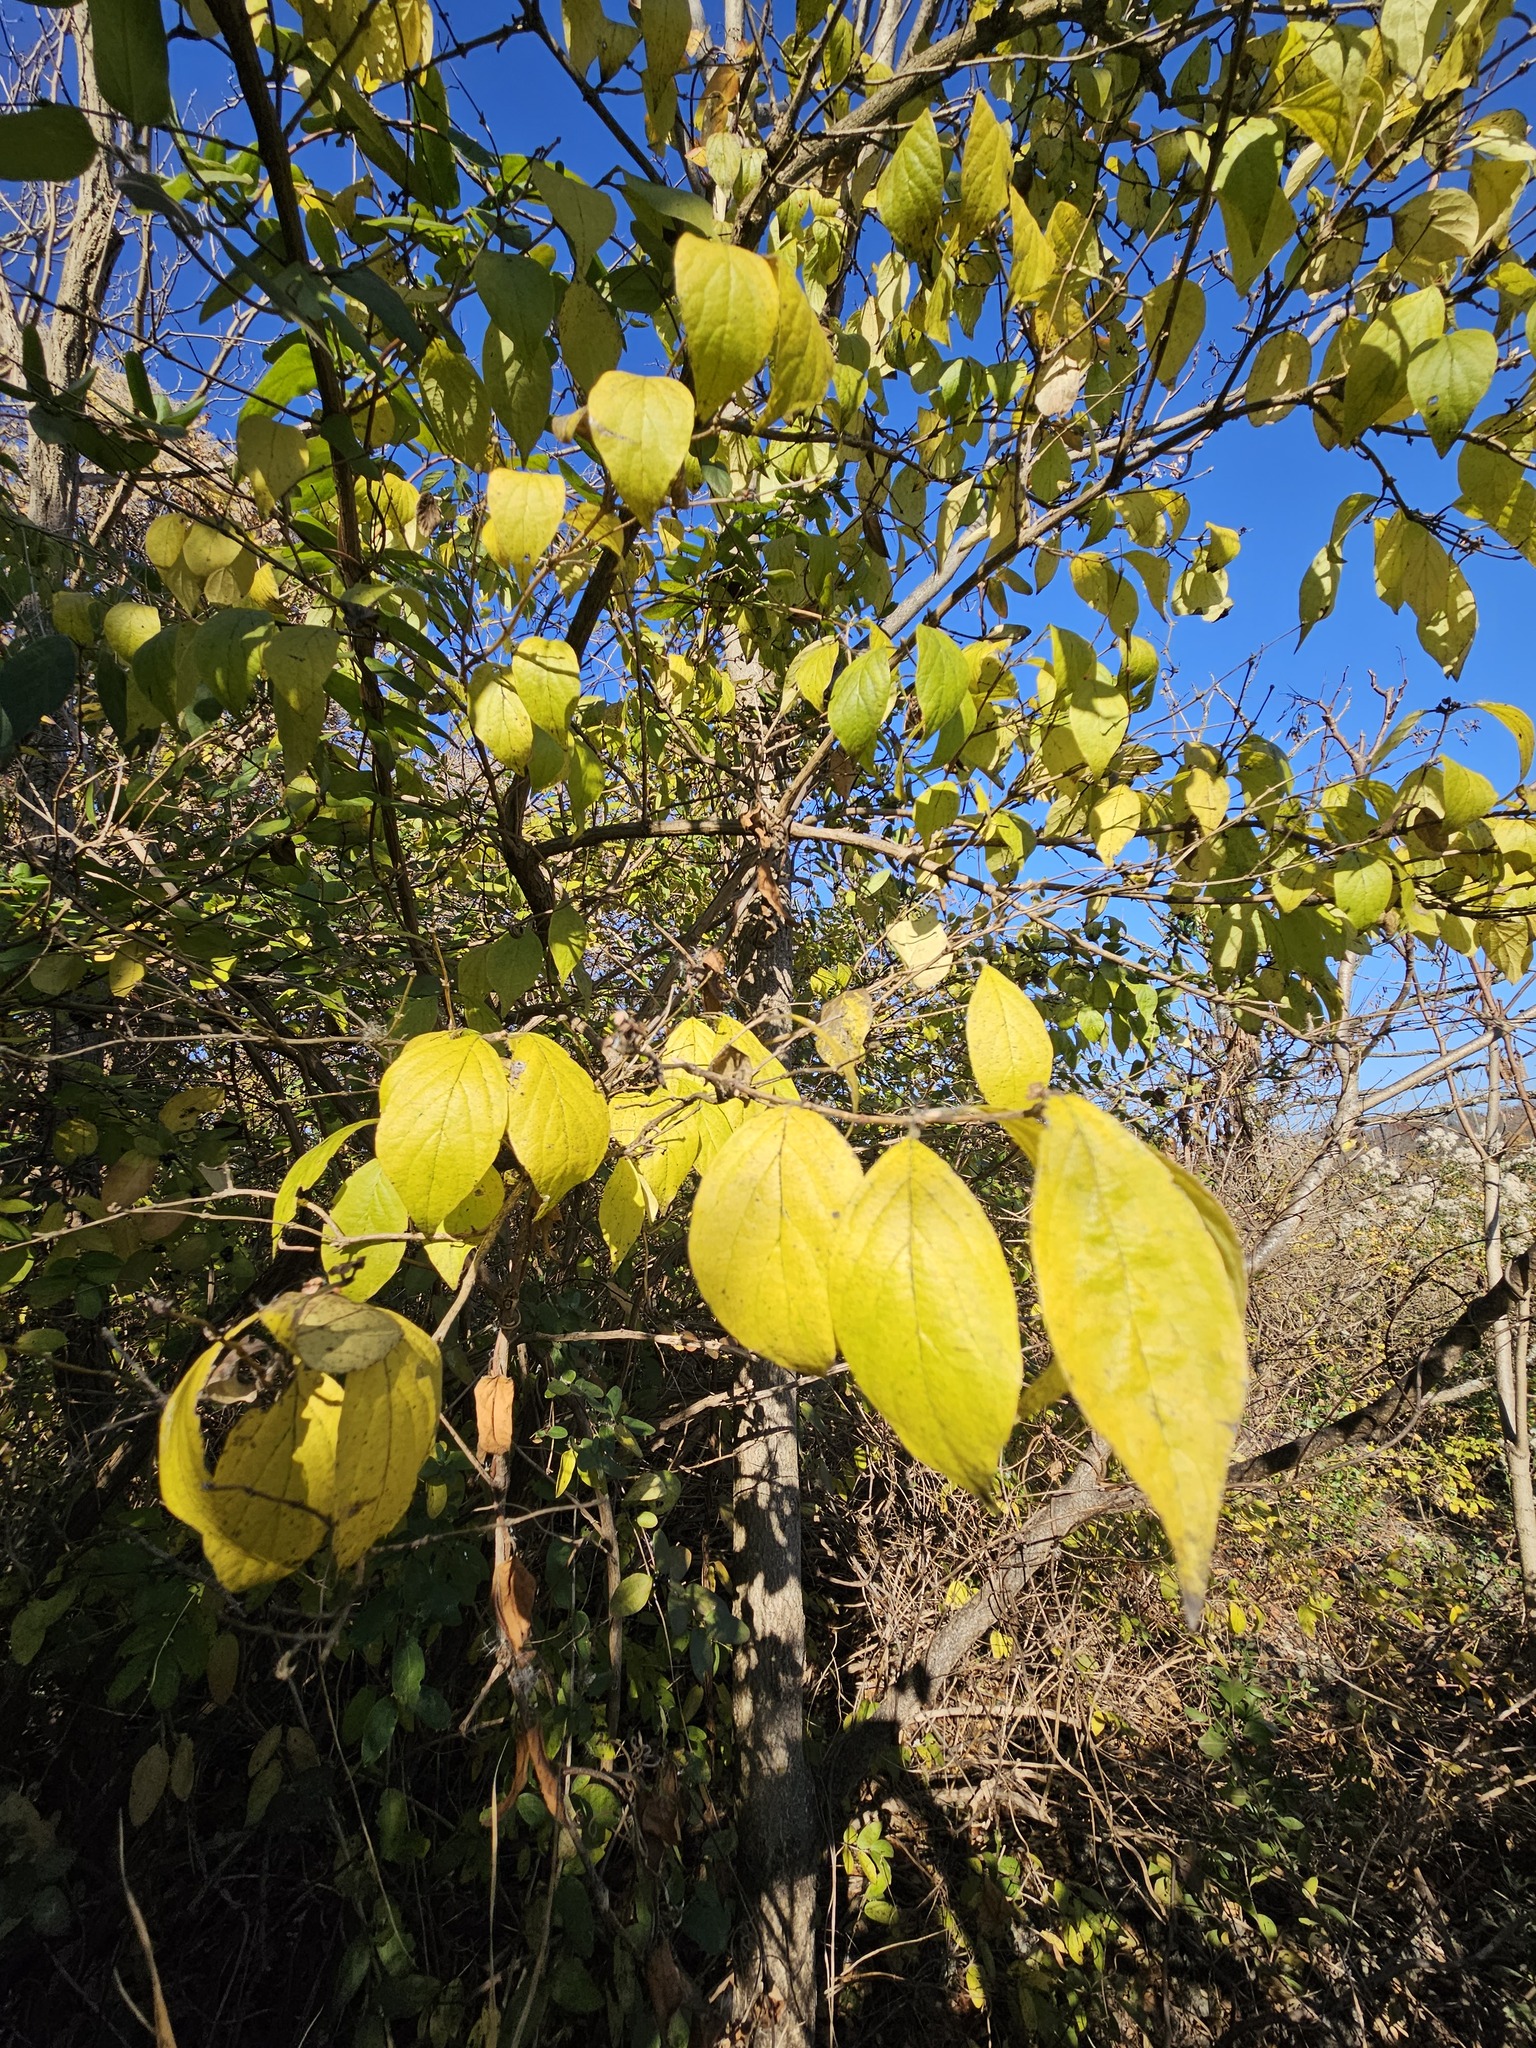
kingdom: Plantae
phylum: Tracheophyta
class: Magnoliopsida
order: Dipsacales
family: Caprifoliaceae
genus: Lonicera
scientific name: Lonicera maackii
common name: Amur honeysuckle
